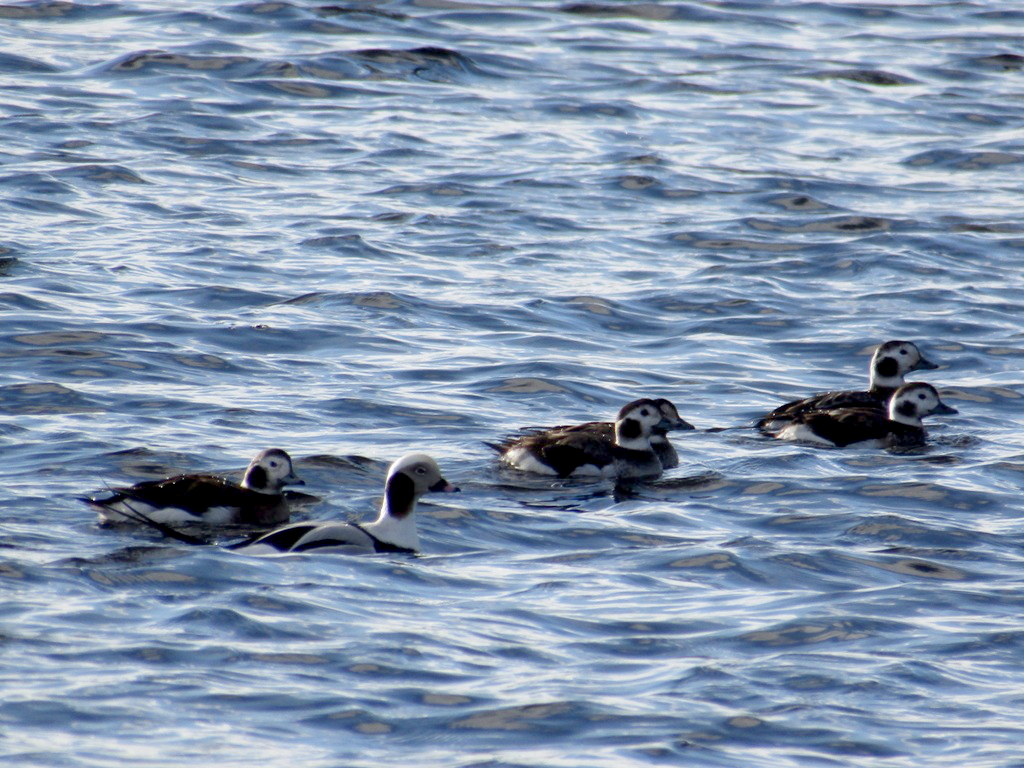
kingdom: Animalia
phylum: Chordata
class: Aves
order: Anseriformes
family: Anatidae
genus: Clangula
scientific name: Clangula hyemalis
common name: Long-tailed duck
